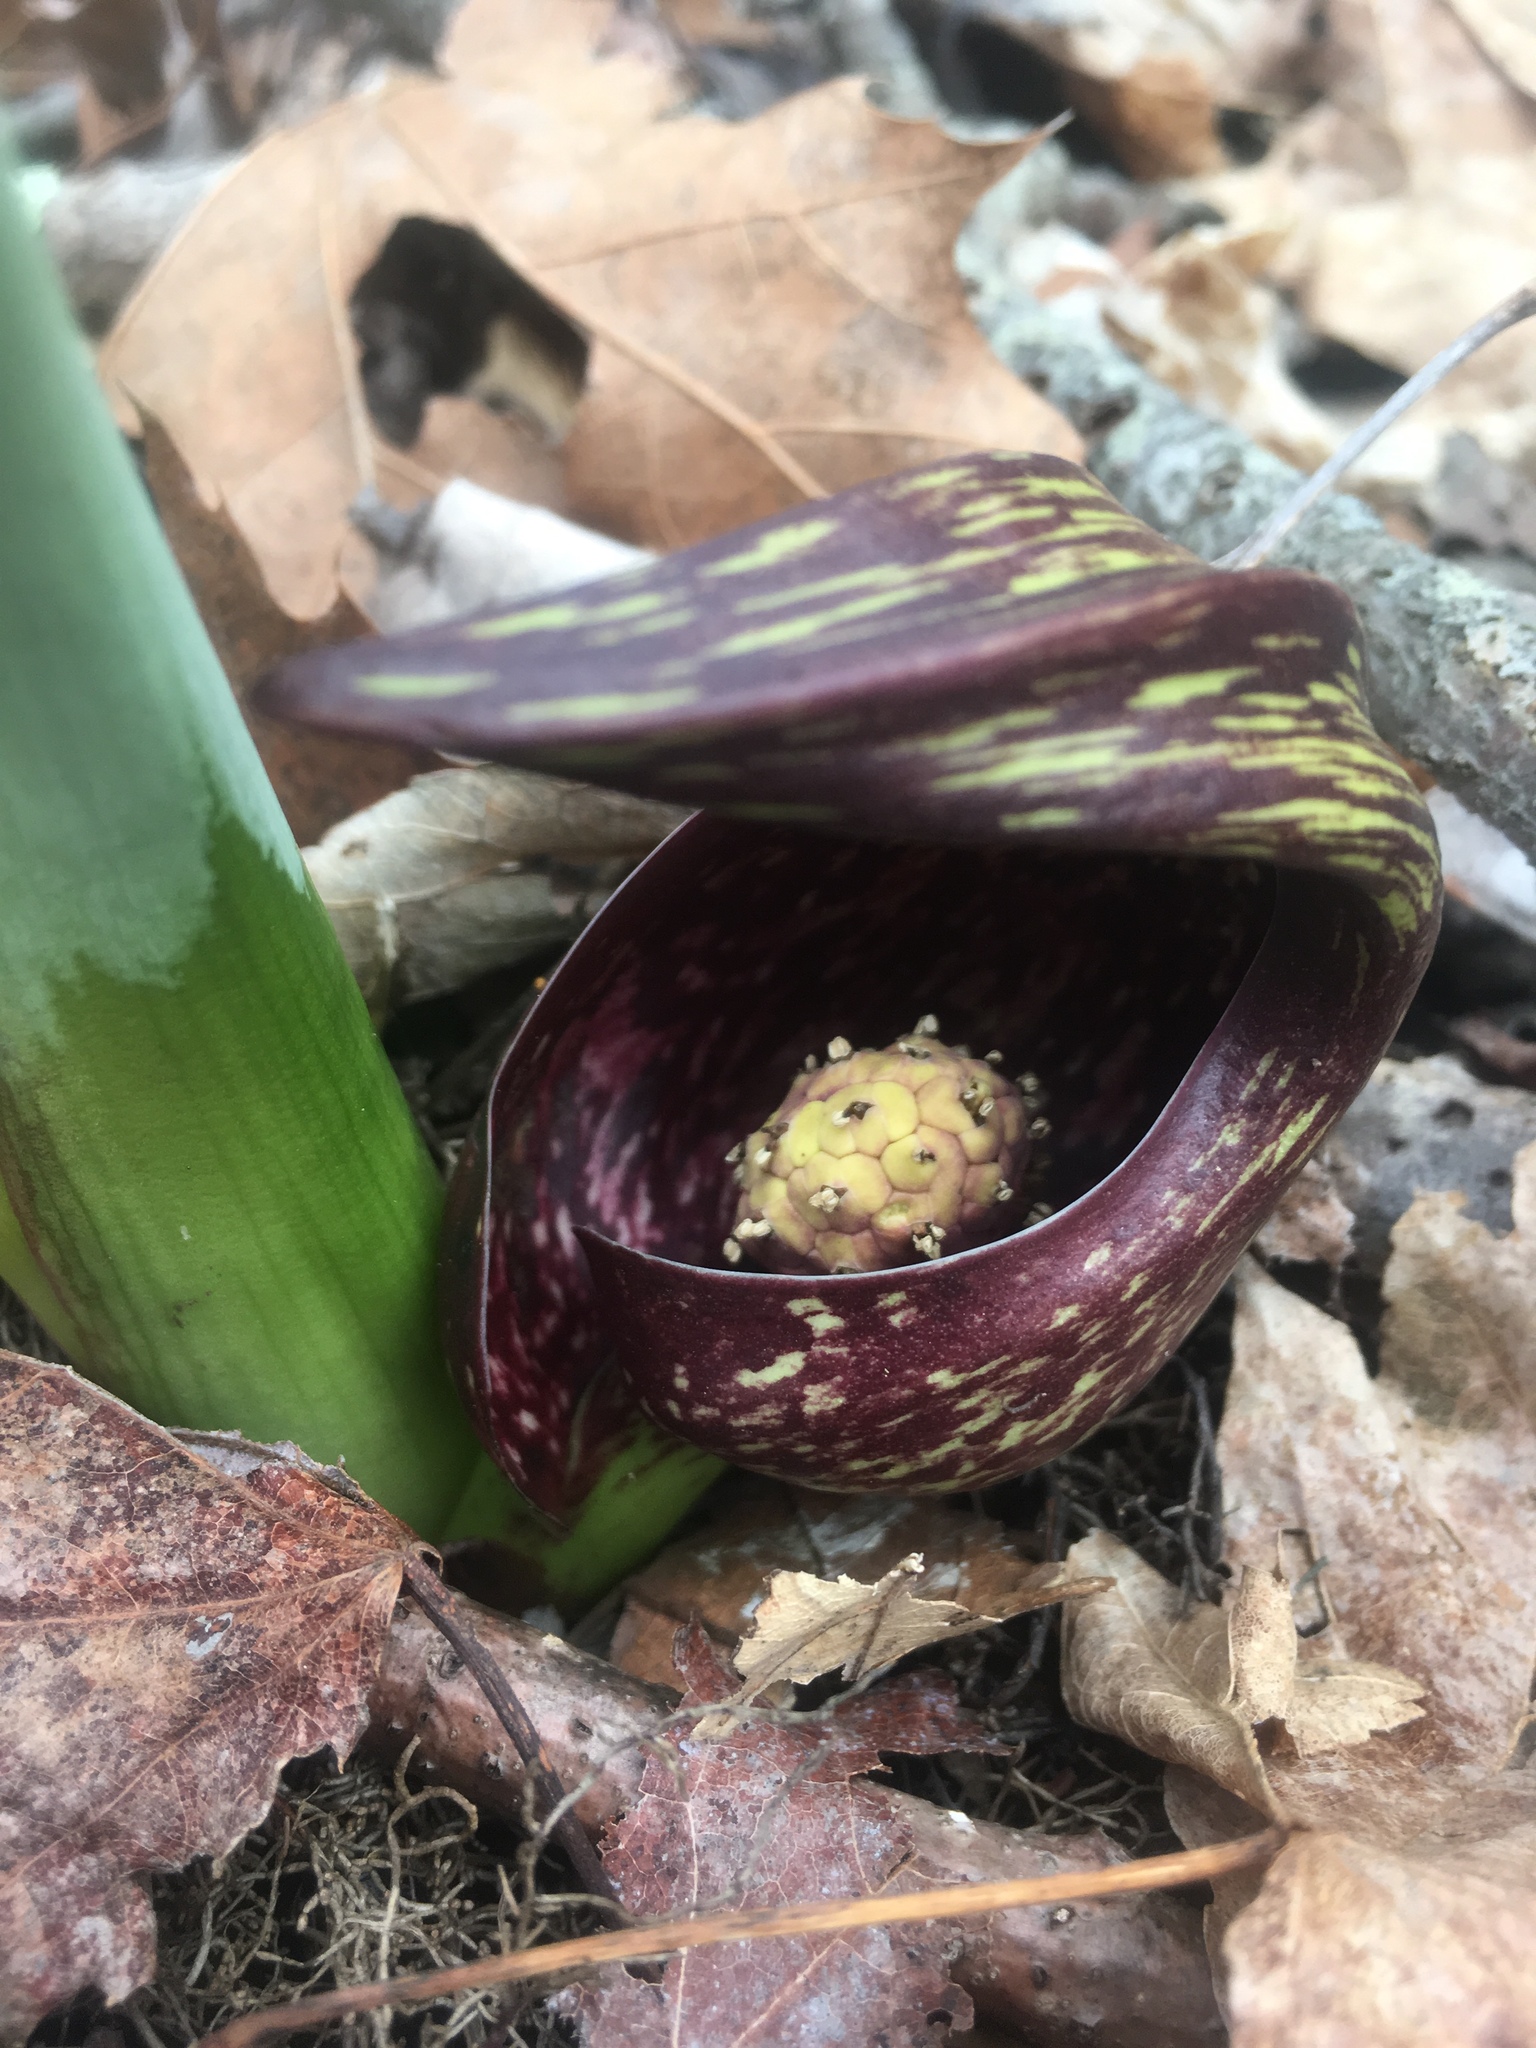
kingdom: Plantae
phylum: Tracheophyta
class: Liliopsida
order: Alismatales
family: Araceae
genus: Symplocarpus
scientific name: Symplocarpus foetidus
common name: Eastern skunk cabbage
